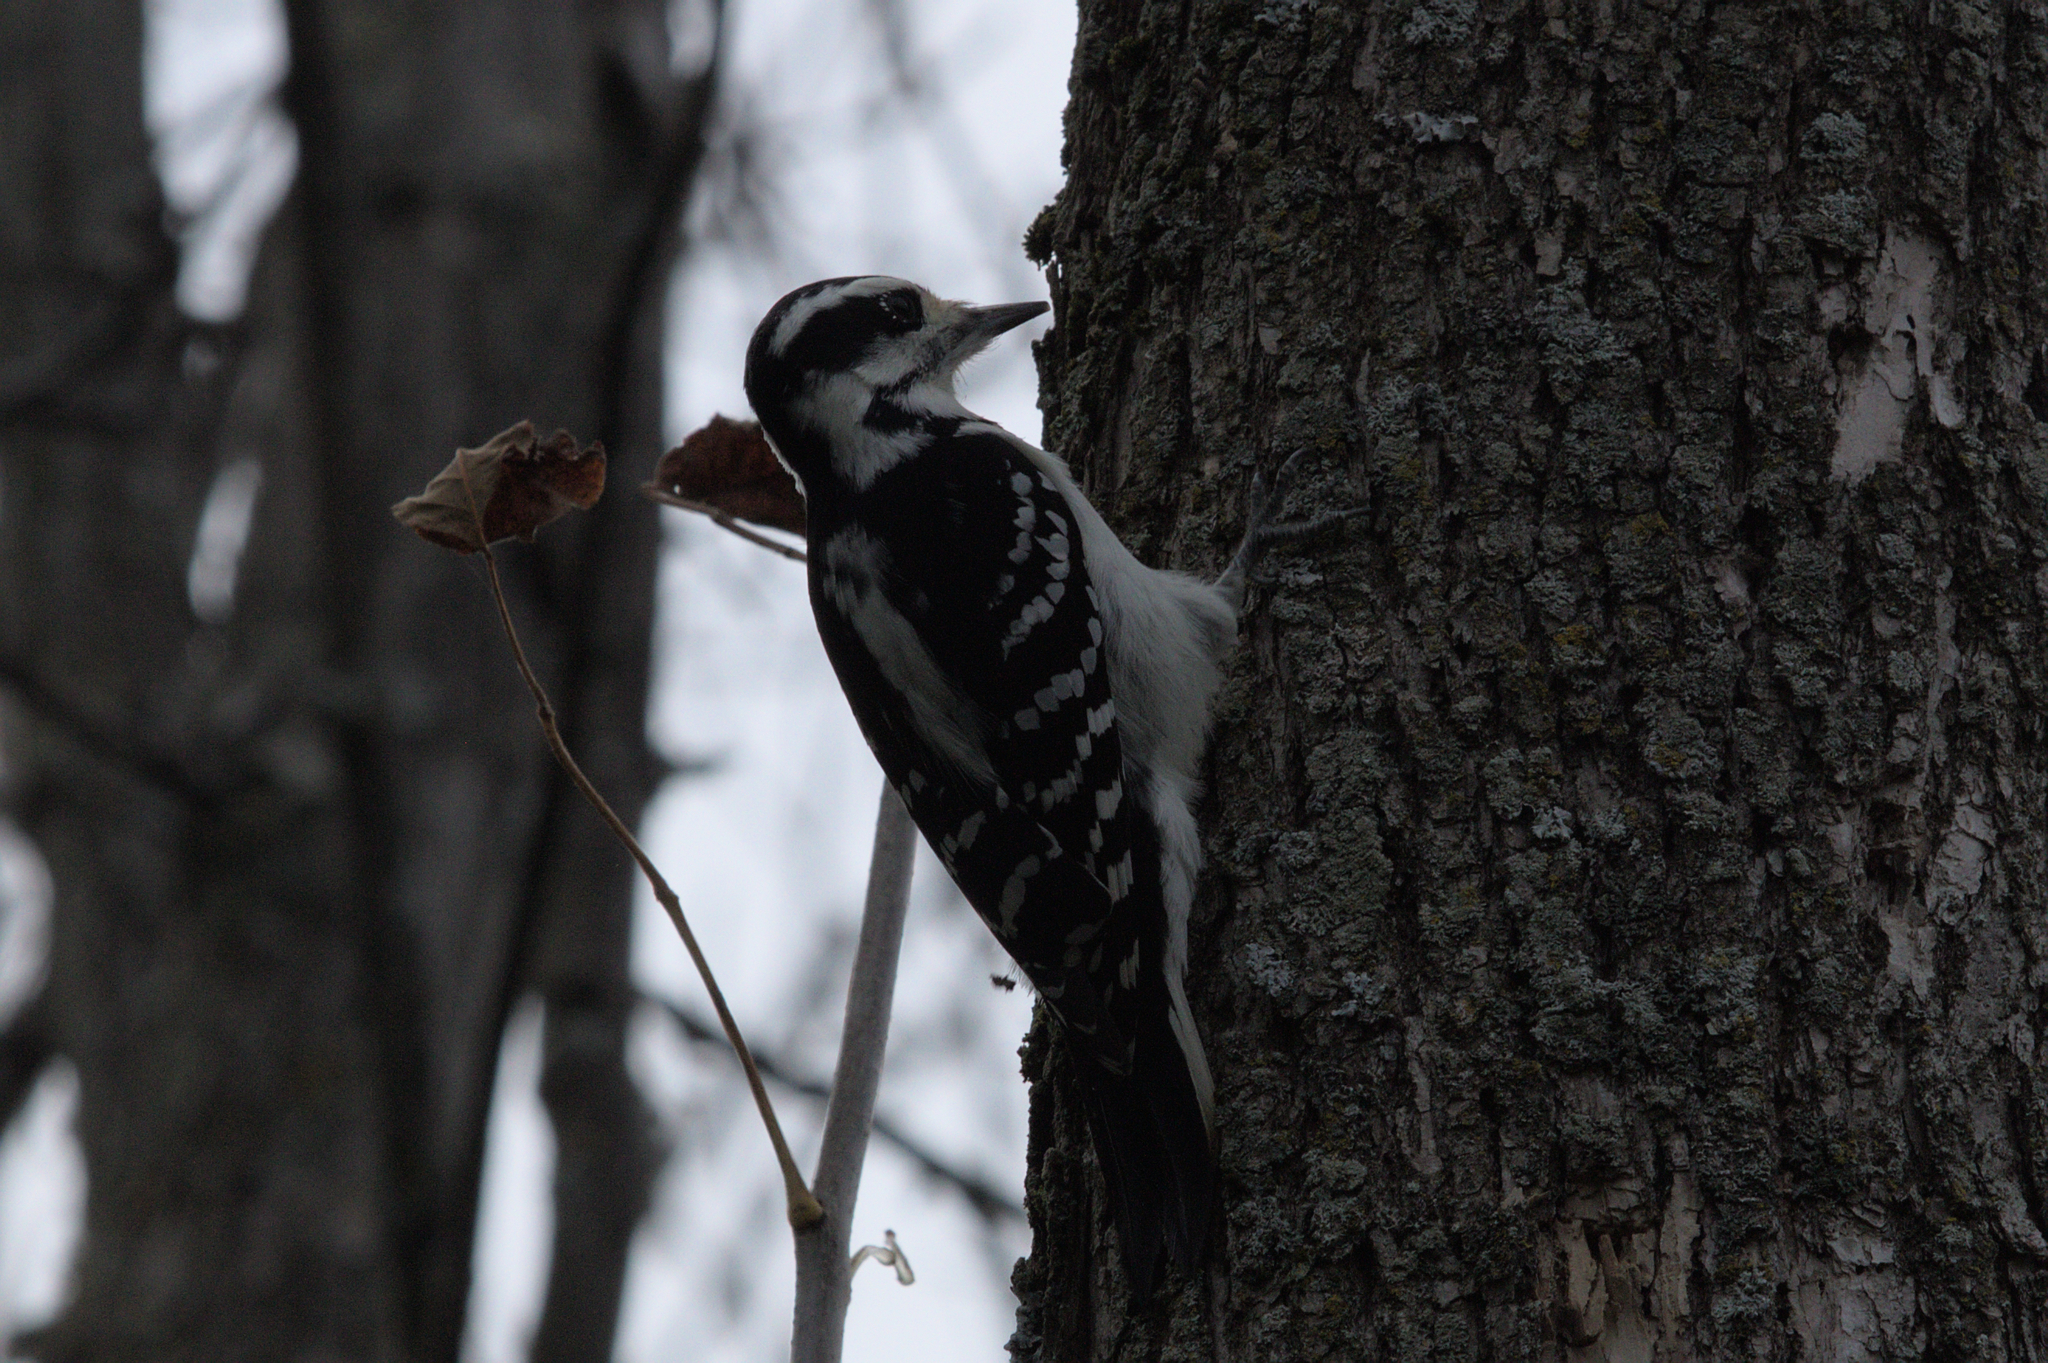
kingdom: Animalia
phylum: Chordata
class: Aves
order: Piciformes
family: Picidae
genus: Leuconotopicus
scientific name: Leuconotopicus villosus
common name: Hairy woodpecker
